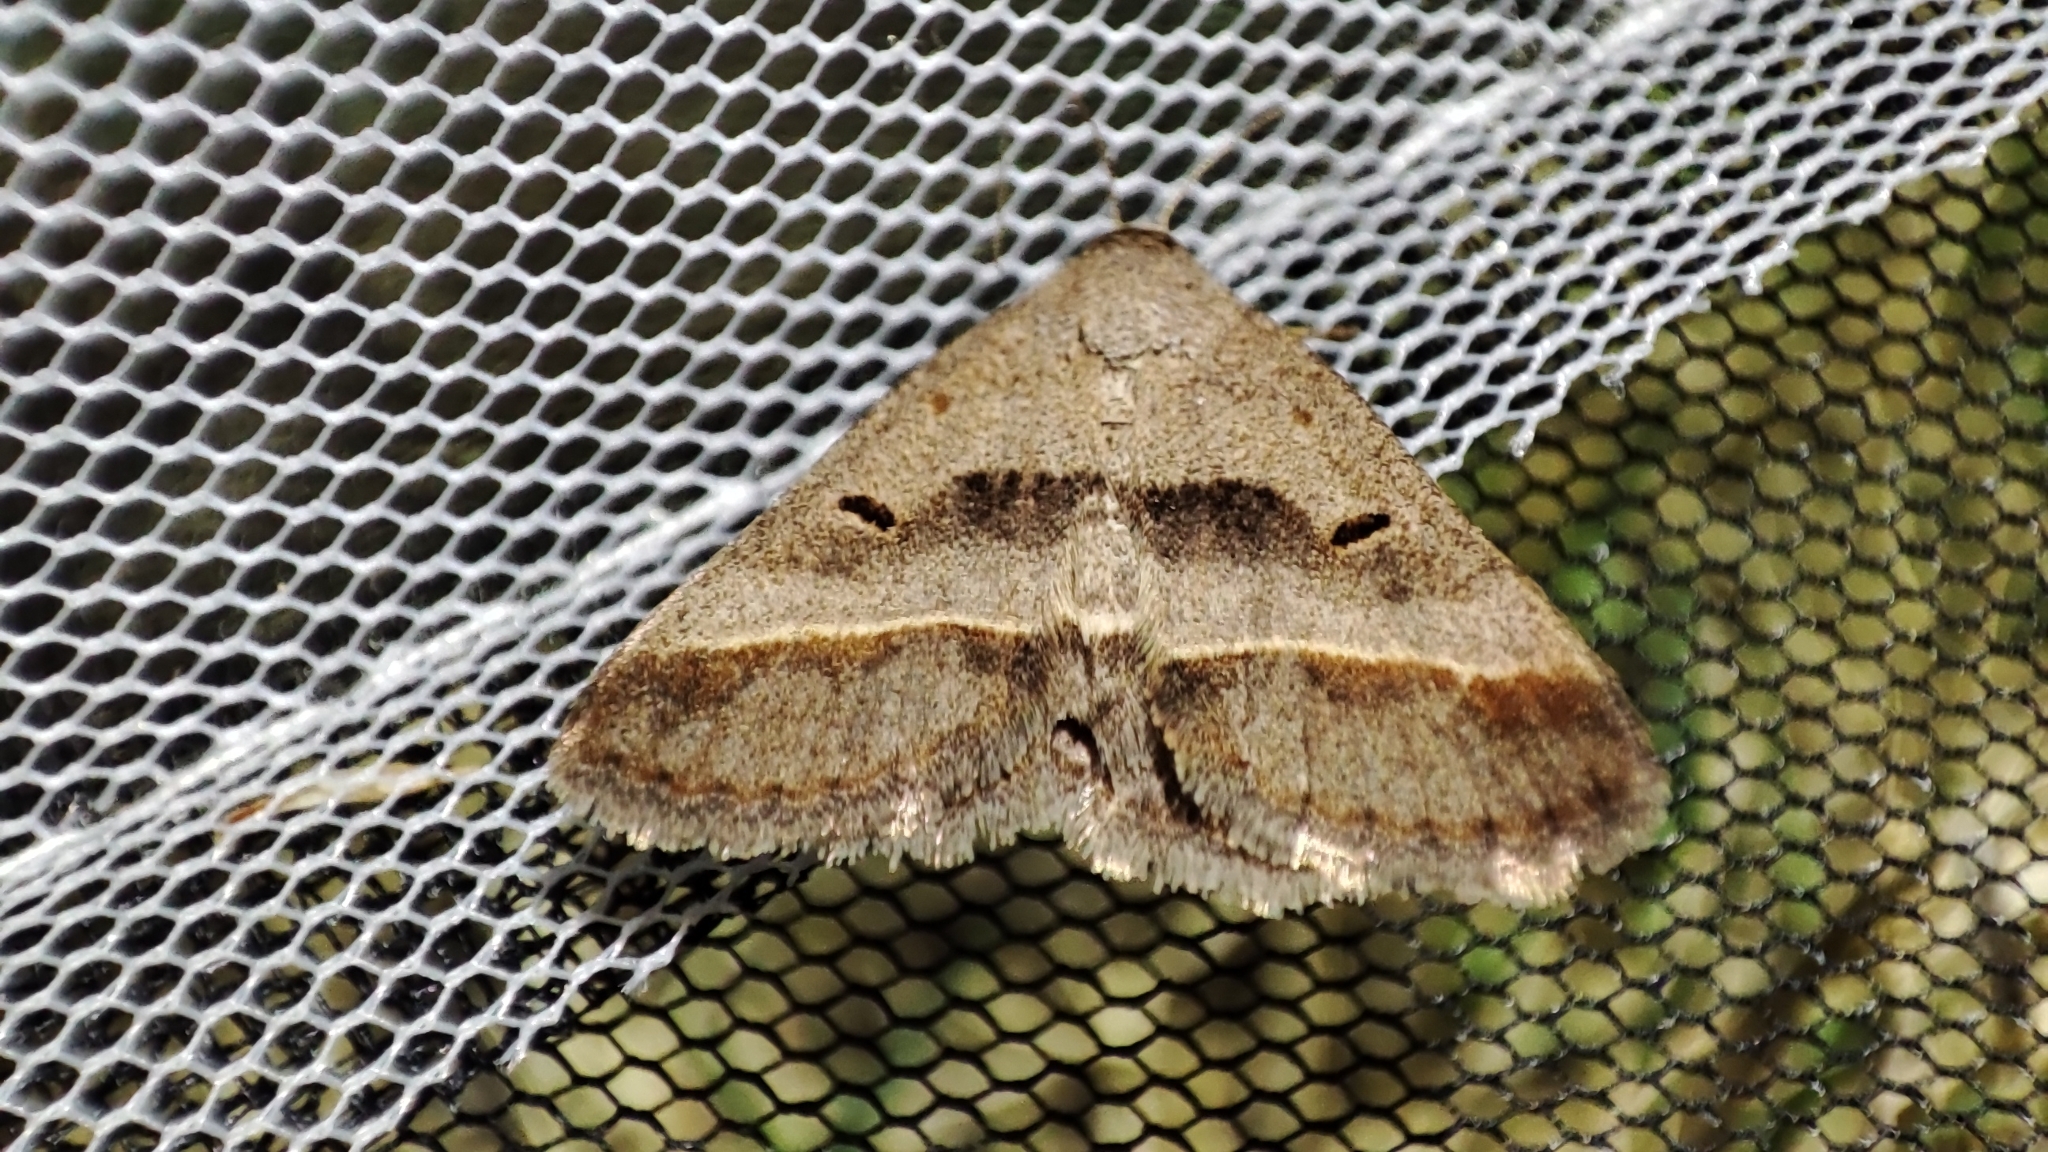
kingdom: Animalia
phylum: Arthropoda
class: Insecta
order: Lepidoptera
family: Erebidae
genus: Acantholipes
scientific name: Acantholipes regularis
